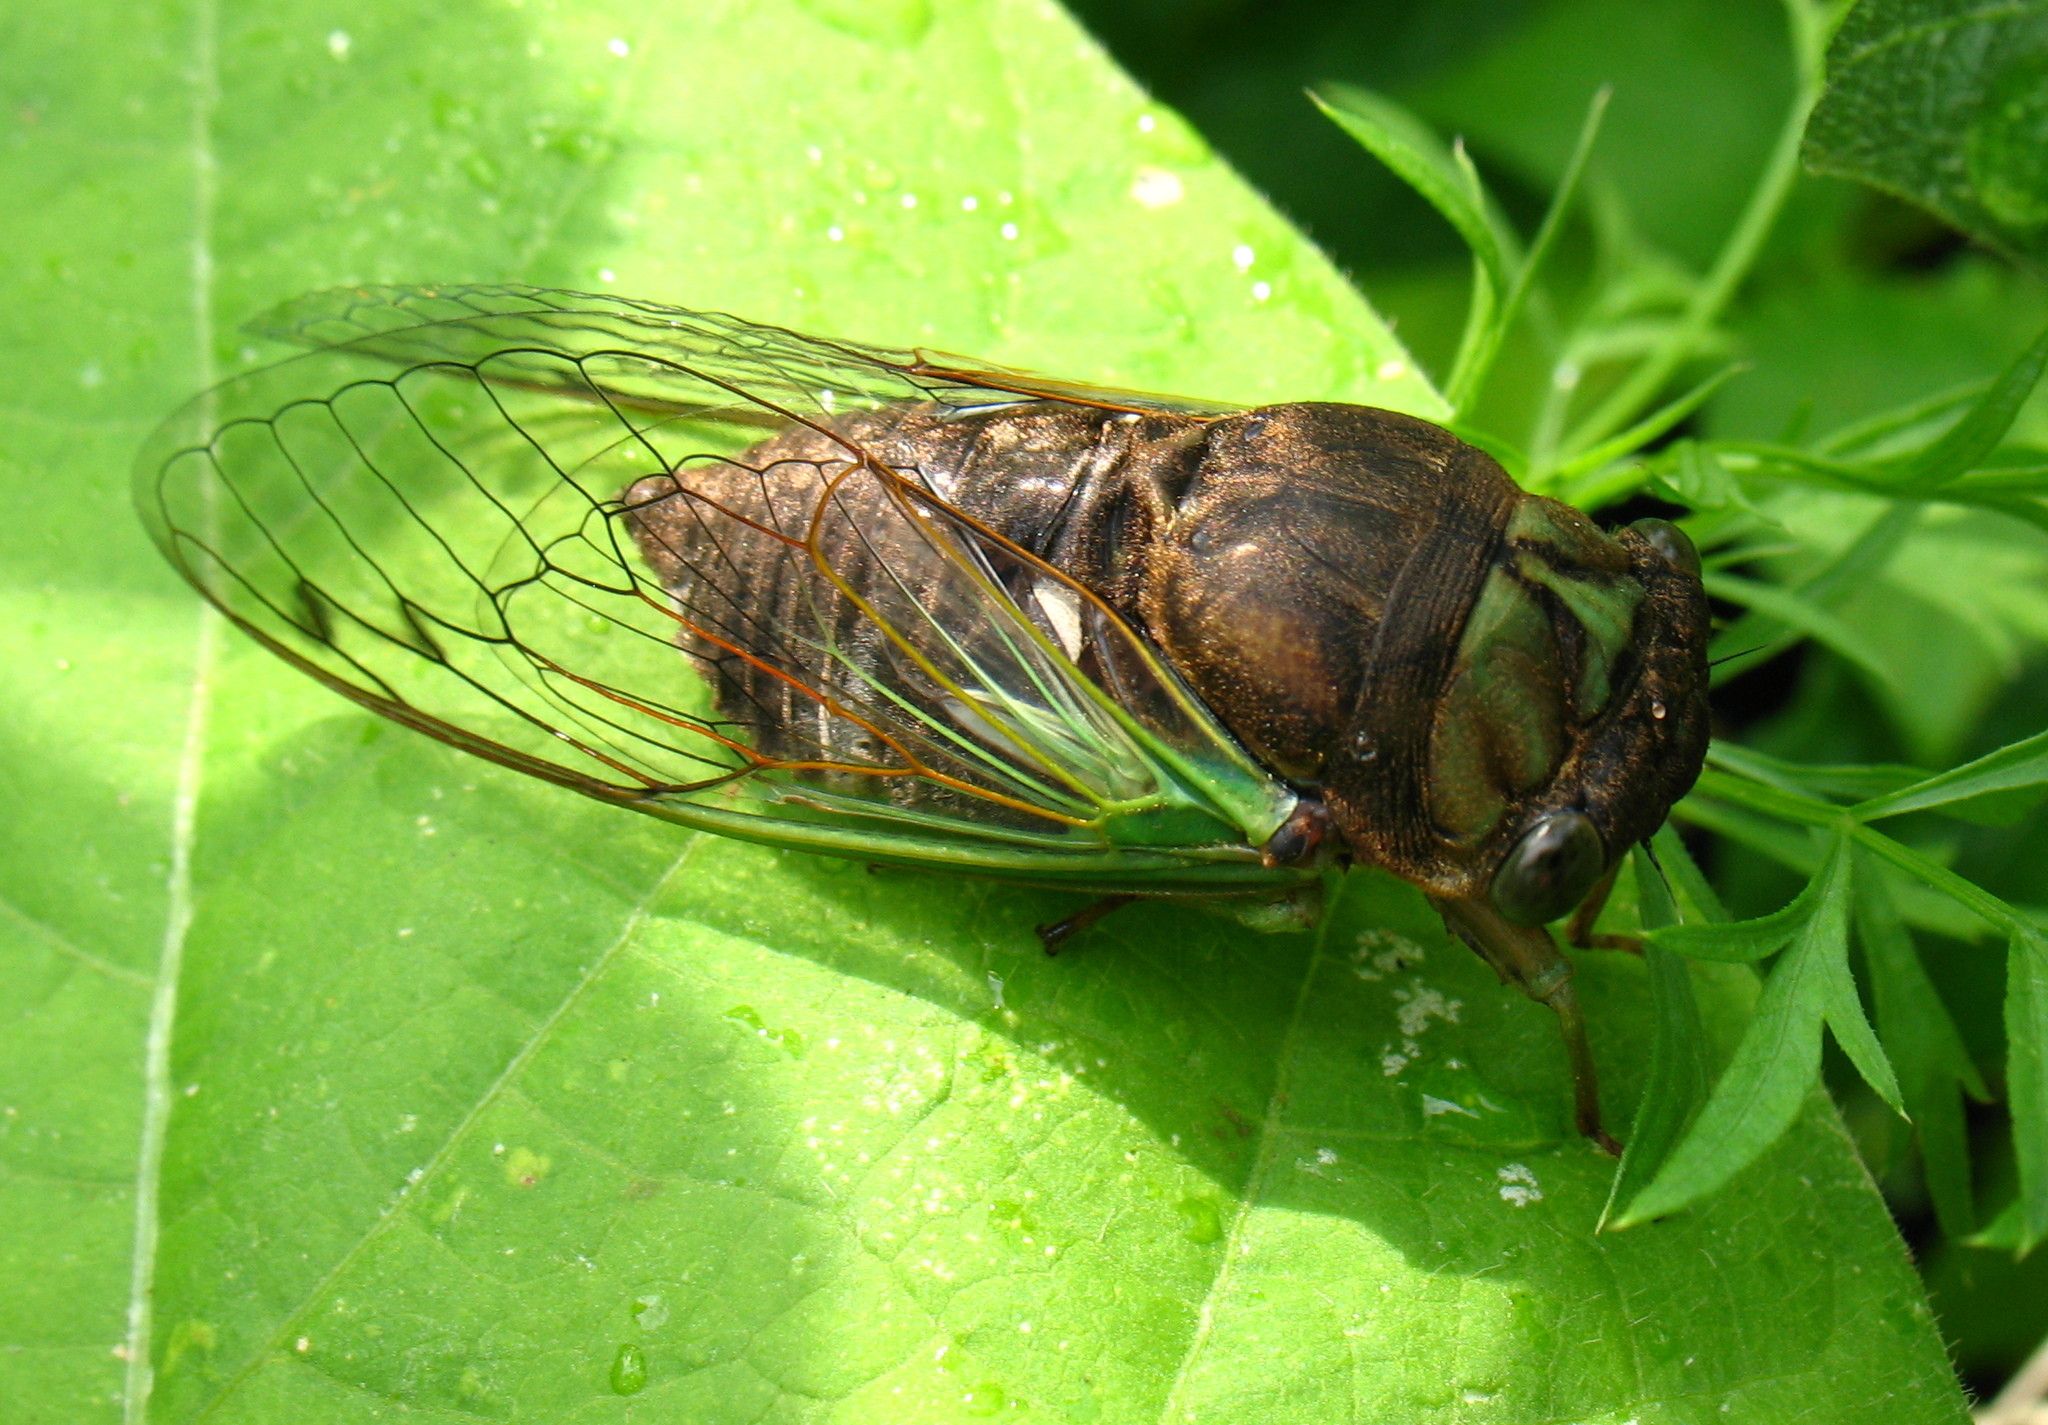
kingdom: Animalia
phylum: Arthropoda
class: Insecta
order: Hemiptera
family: Cicadidae
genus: Neotibicen
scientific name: Neotibicen tibicen
